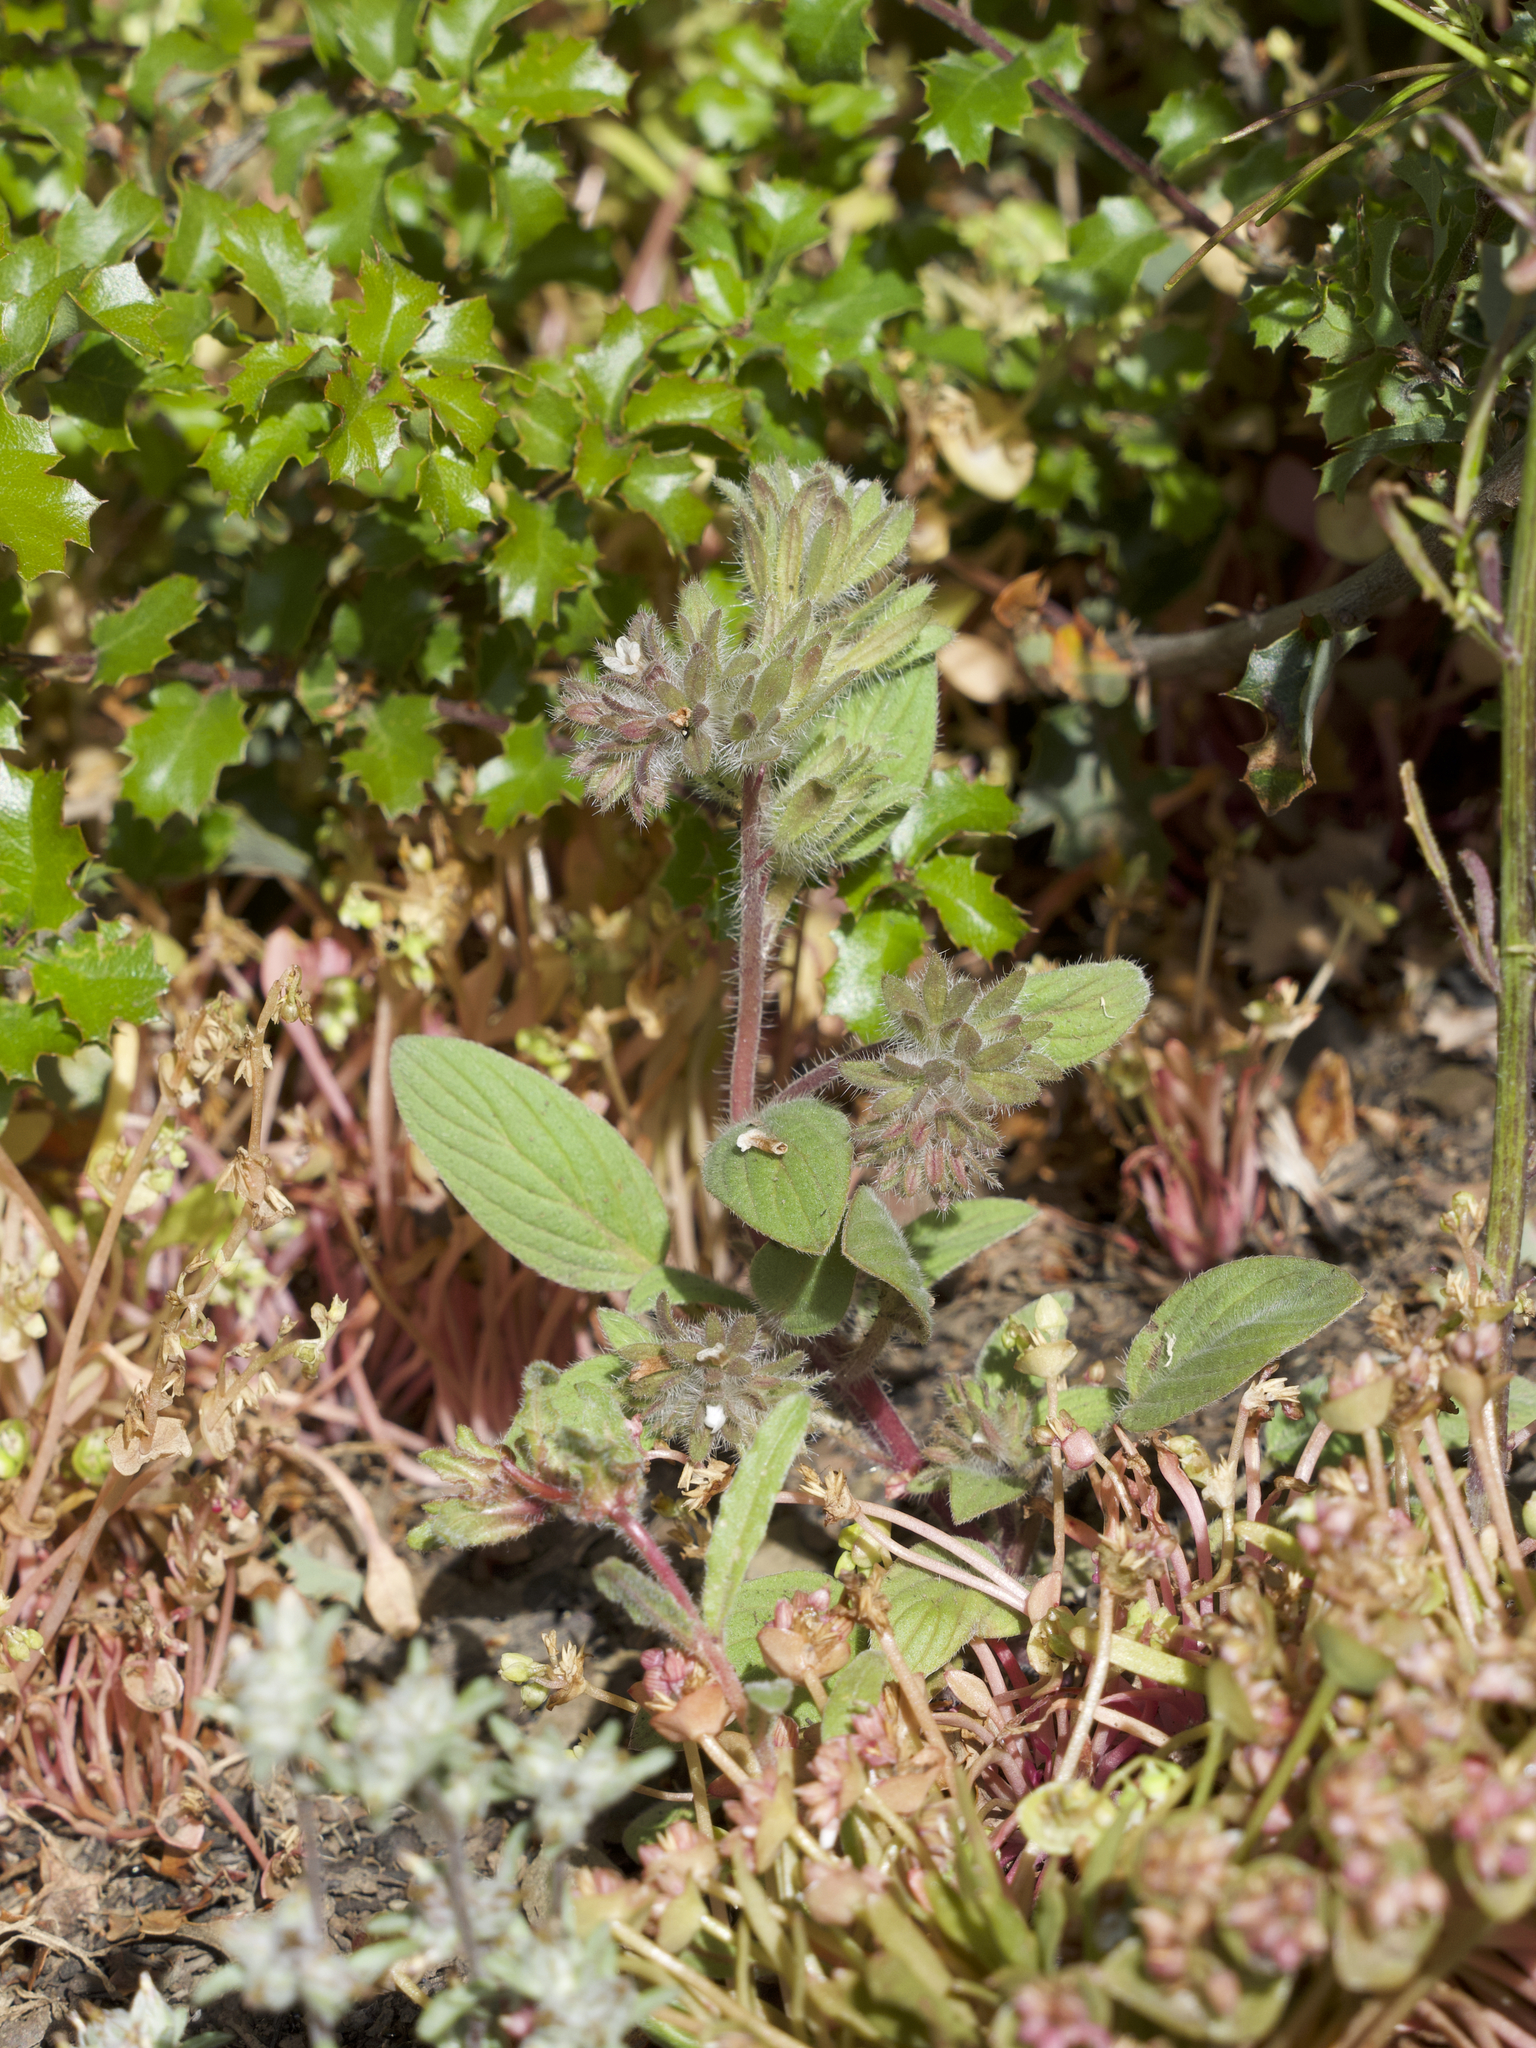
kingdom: Plantae
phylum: Tracheophyta
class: Magnoliopsida
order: Boraginales
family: Hydrophyllaceae
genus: Phacelia
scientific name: Phacelia phacelioides
